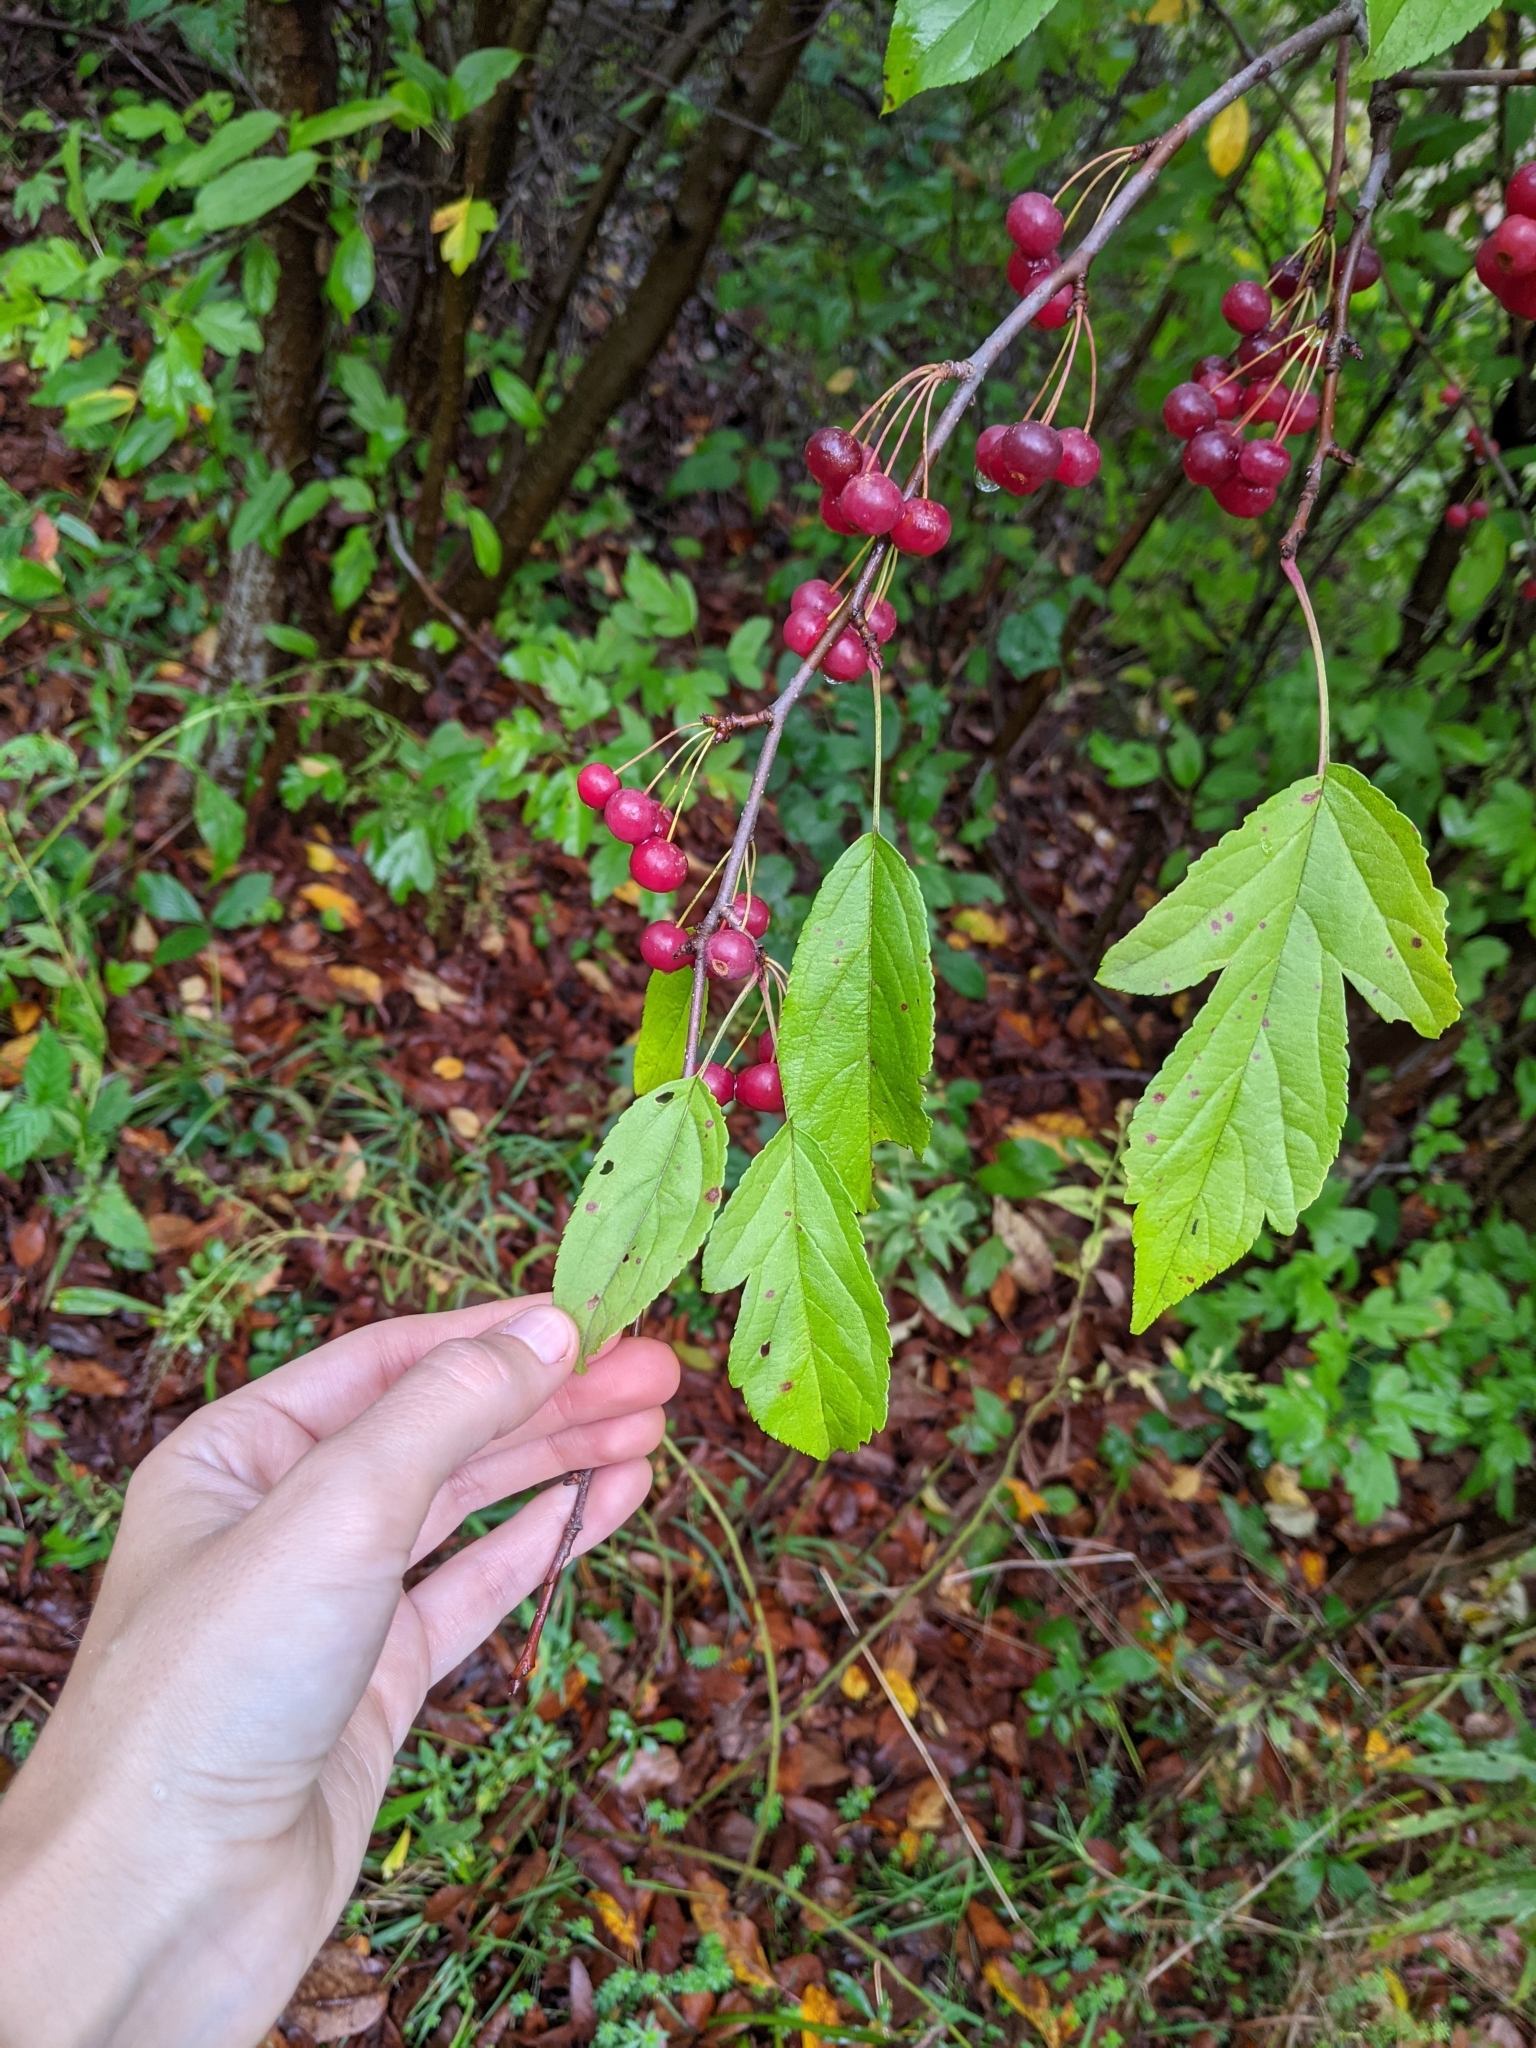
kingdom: Plantae
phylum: Tracheophyta
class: Magnoliopsida
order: Rosales
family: Rosaceae
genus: Malus
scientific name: Malus toringo
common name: Japanese crabapple
